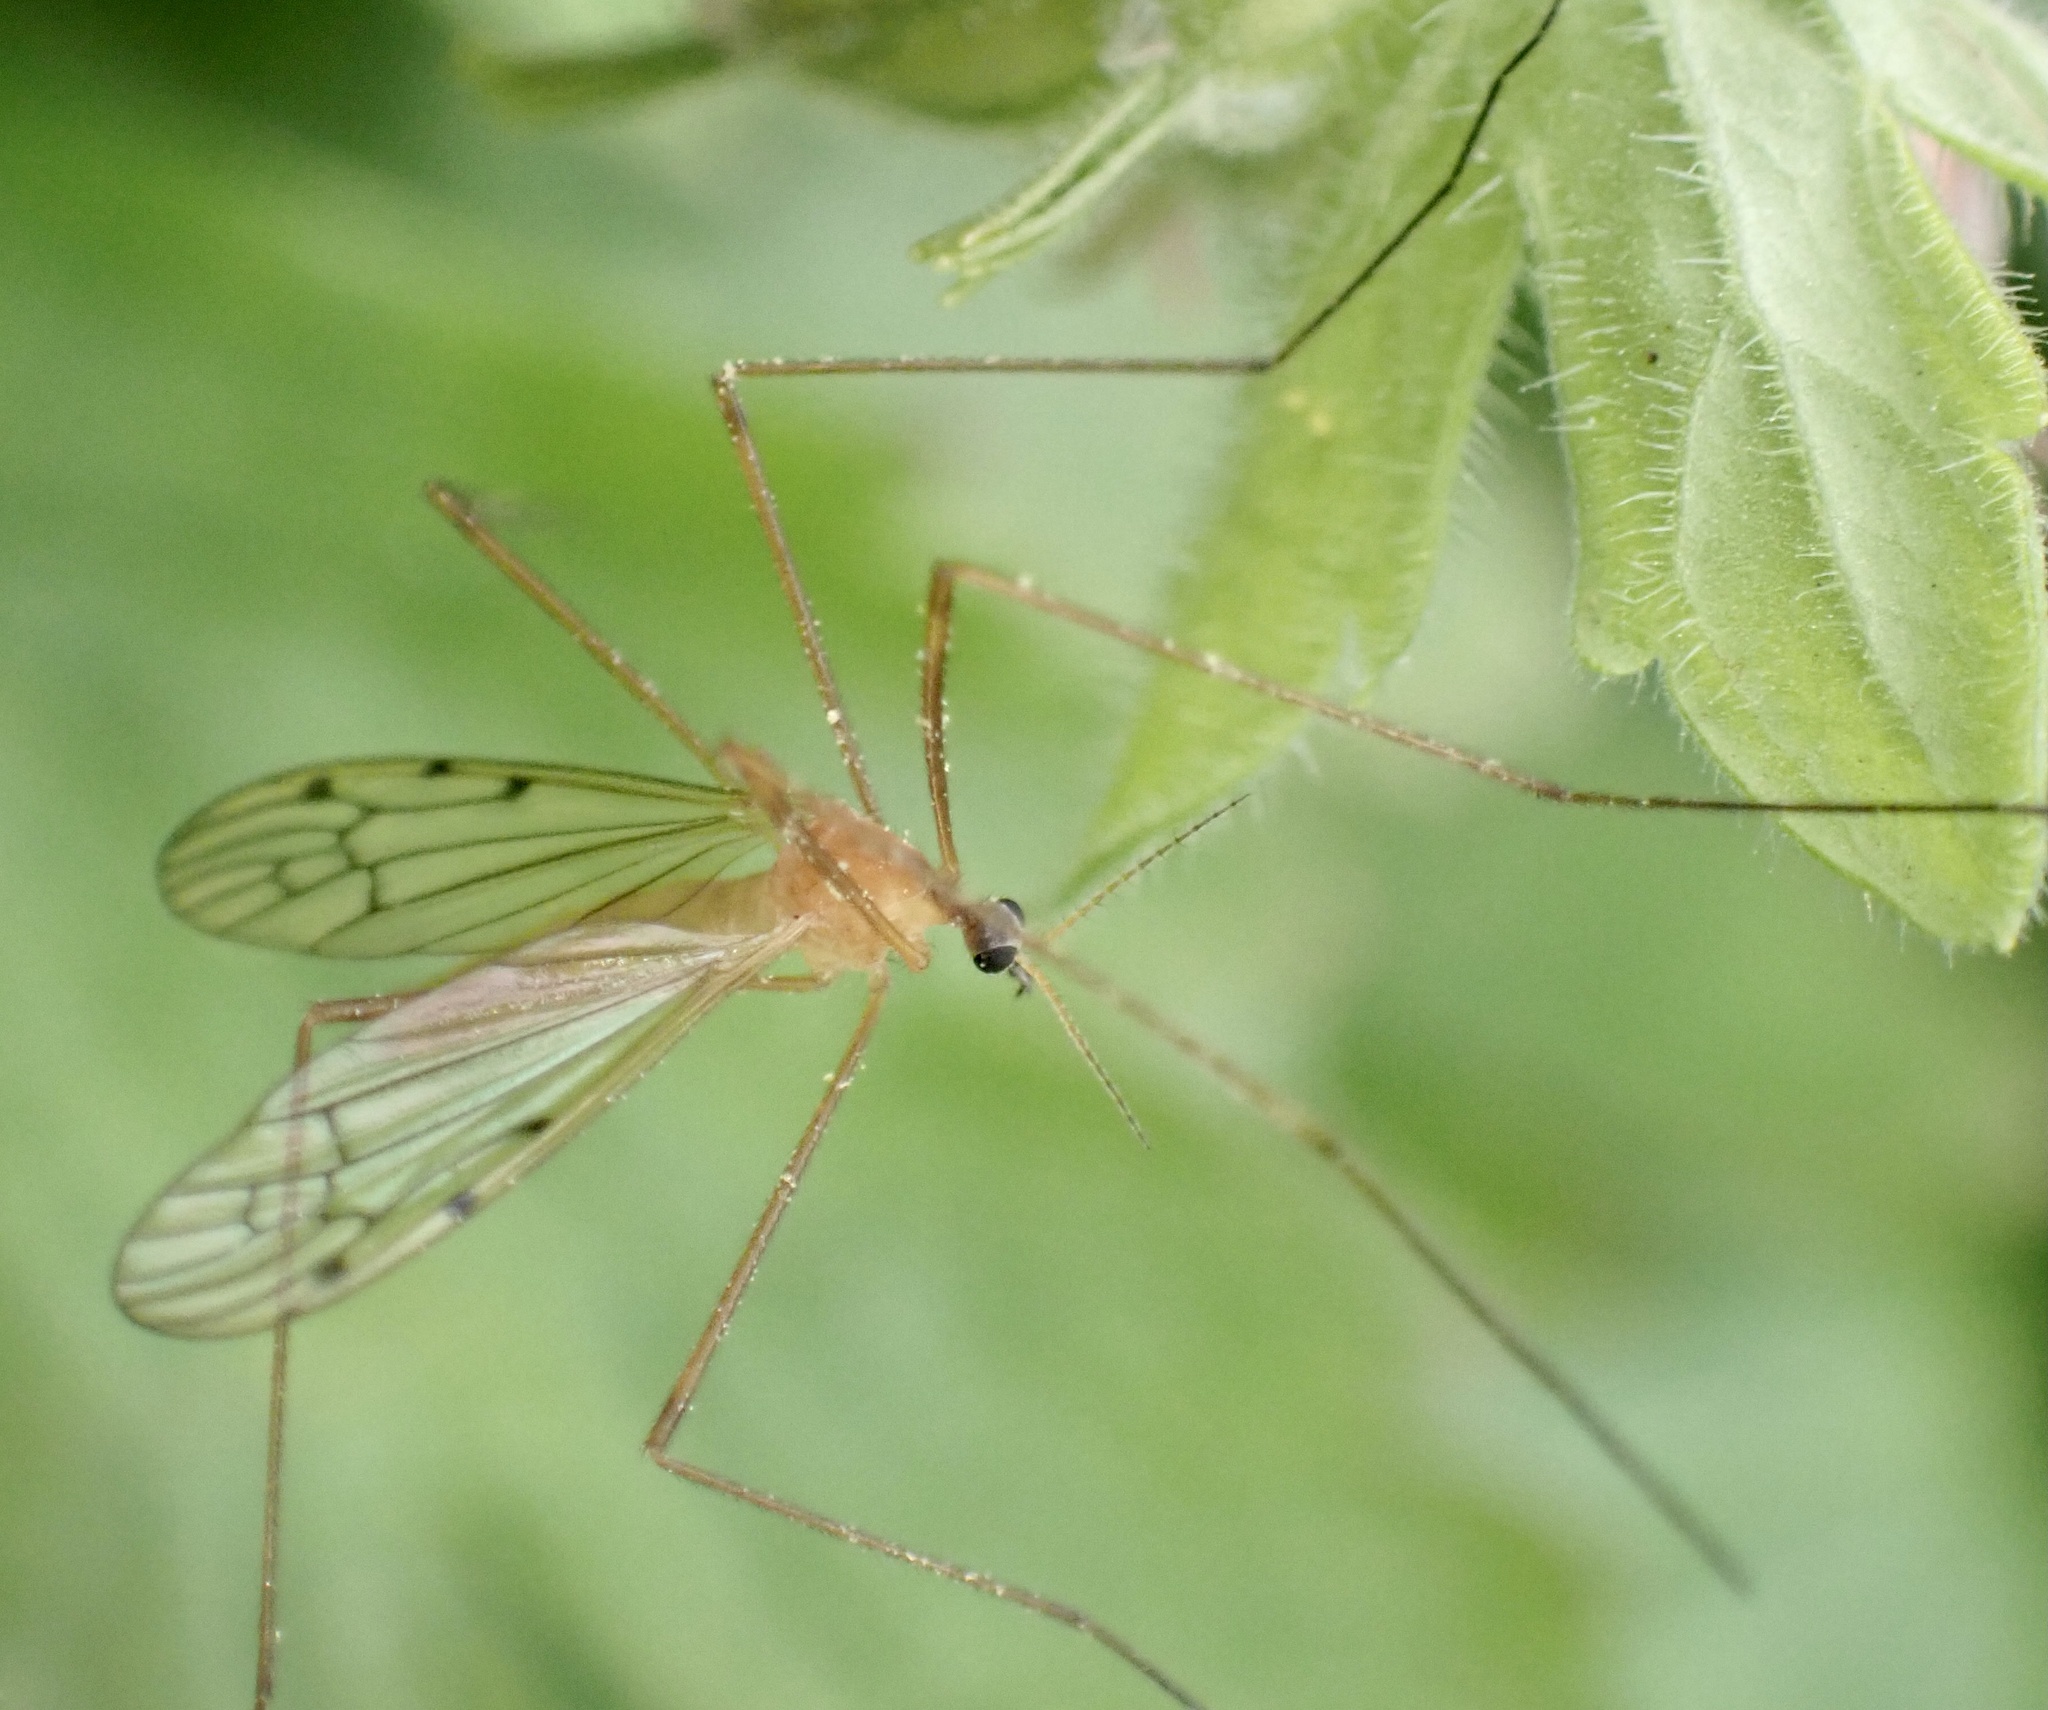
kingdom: Animalia
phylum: Arthropoda
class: Insecta
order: Diptera
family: Limoniidae
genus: Limonia
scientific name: Limonia phragmitidis
